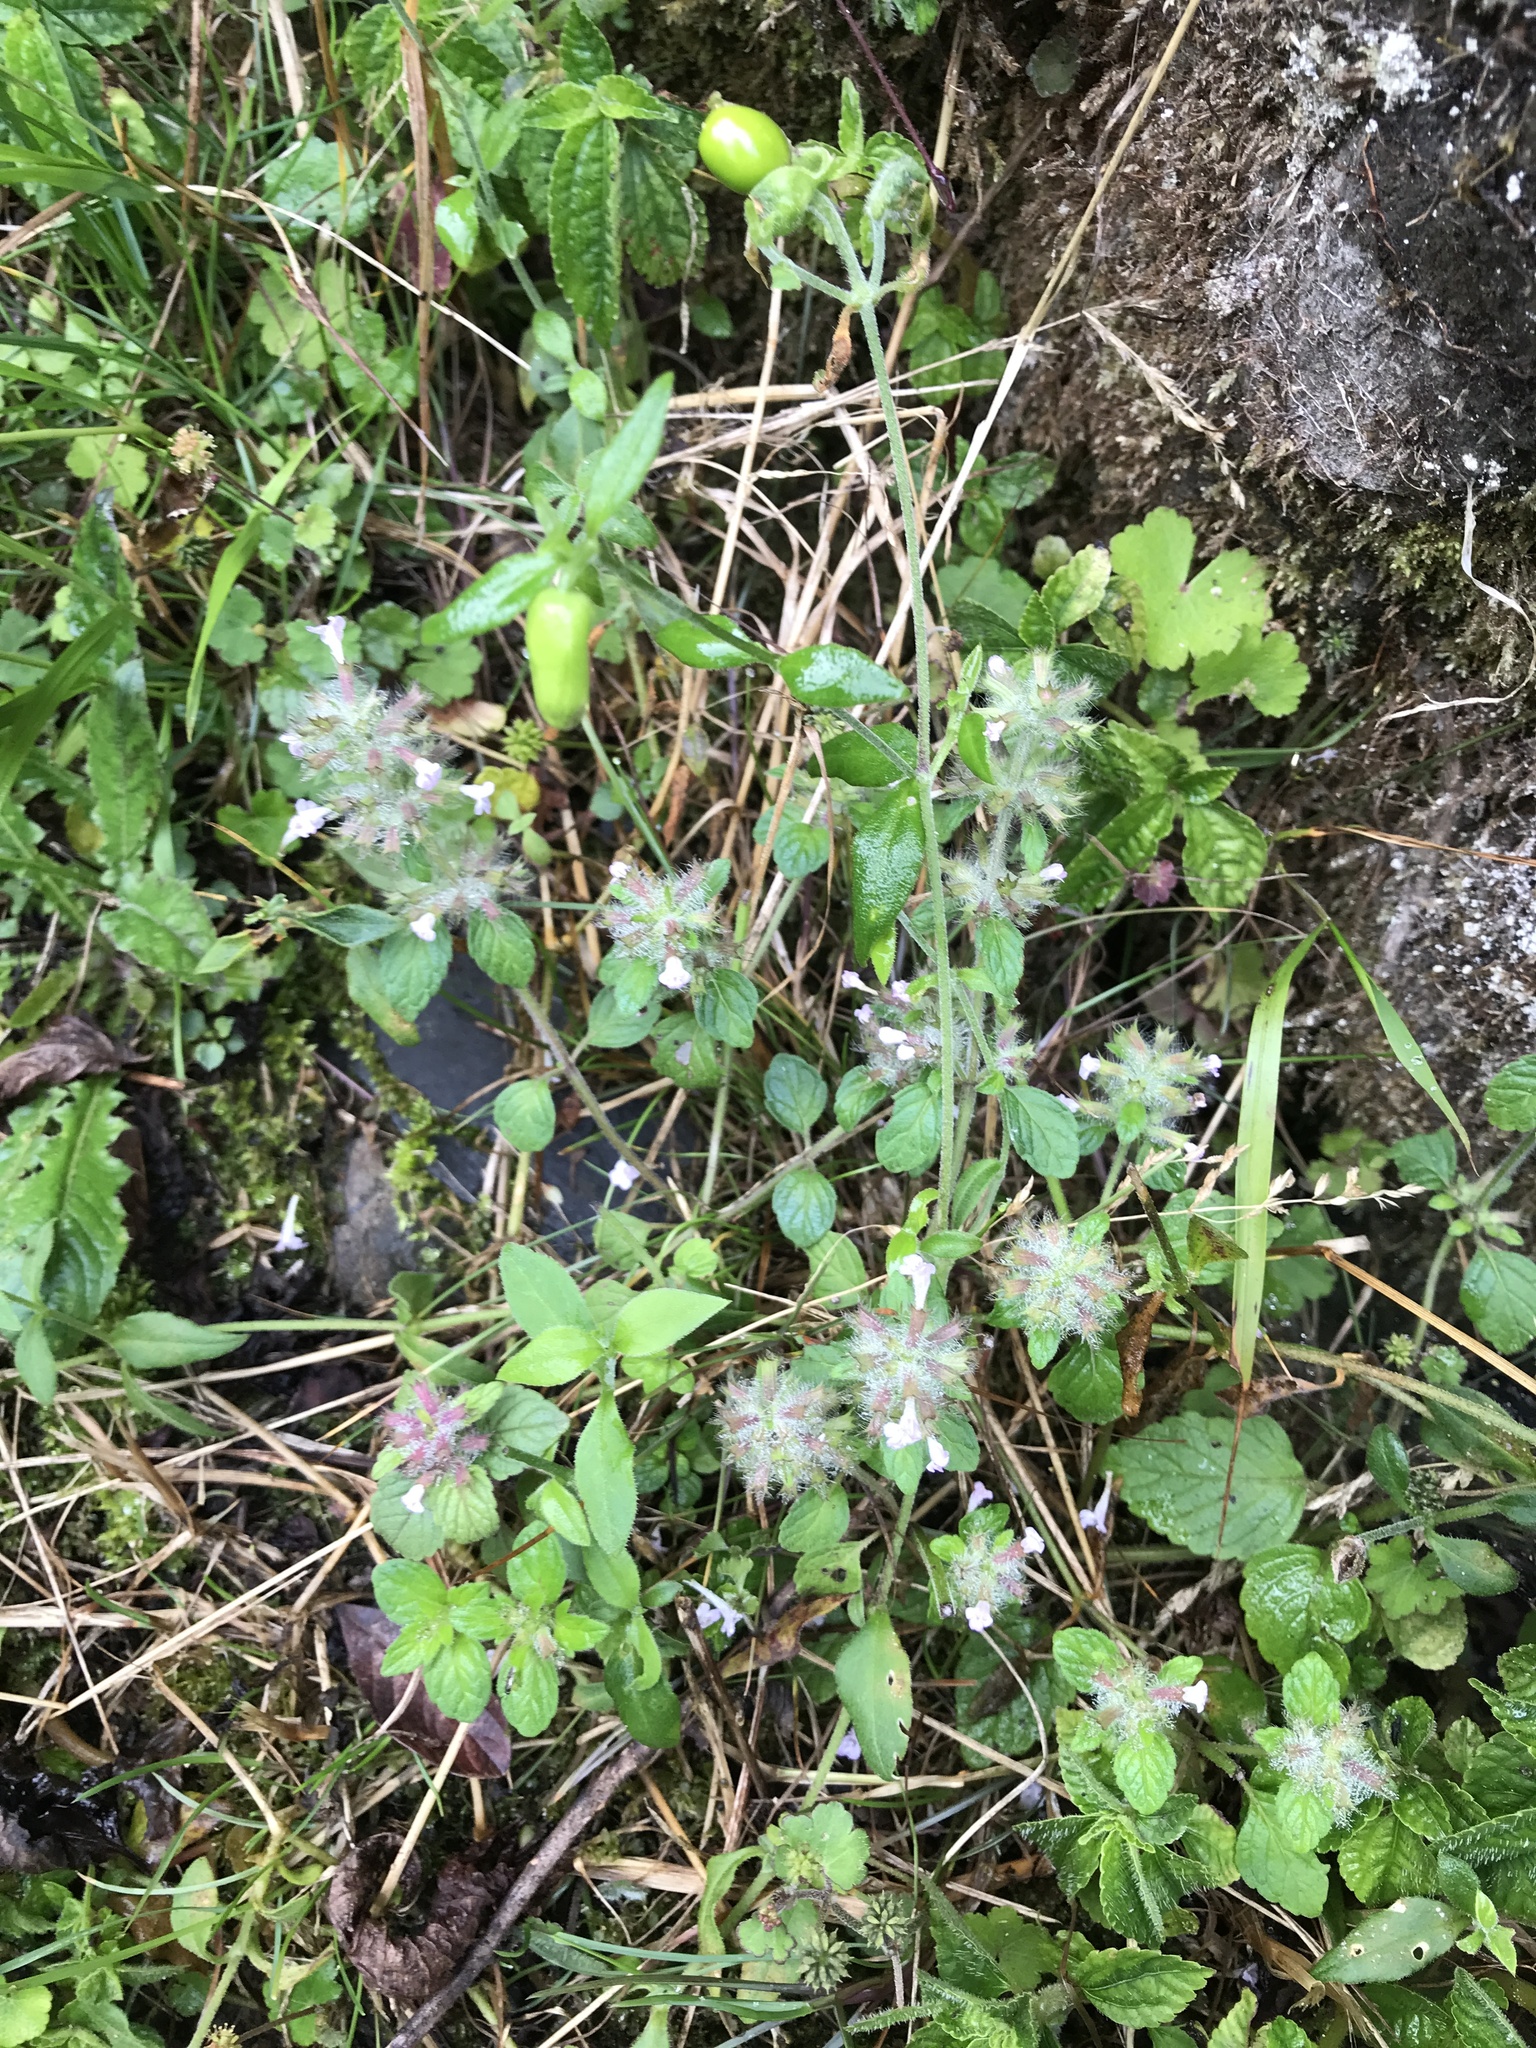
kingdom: Plantae
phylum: Tracheophyta
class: Magnoliopsida
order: Lamiales
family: Lamiaceae
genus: Clinopodium
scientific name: Clinopodium chinense
